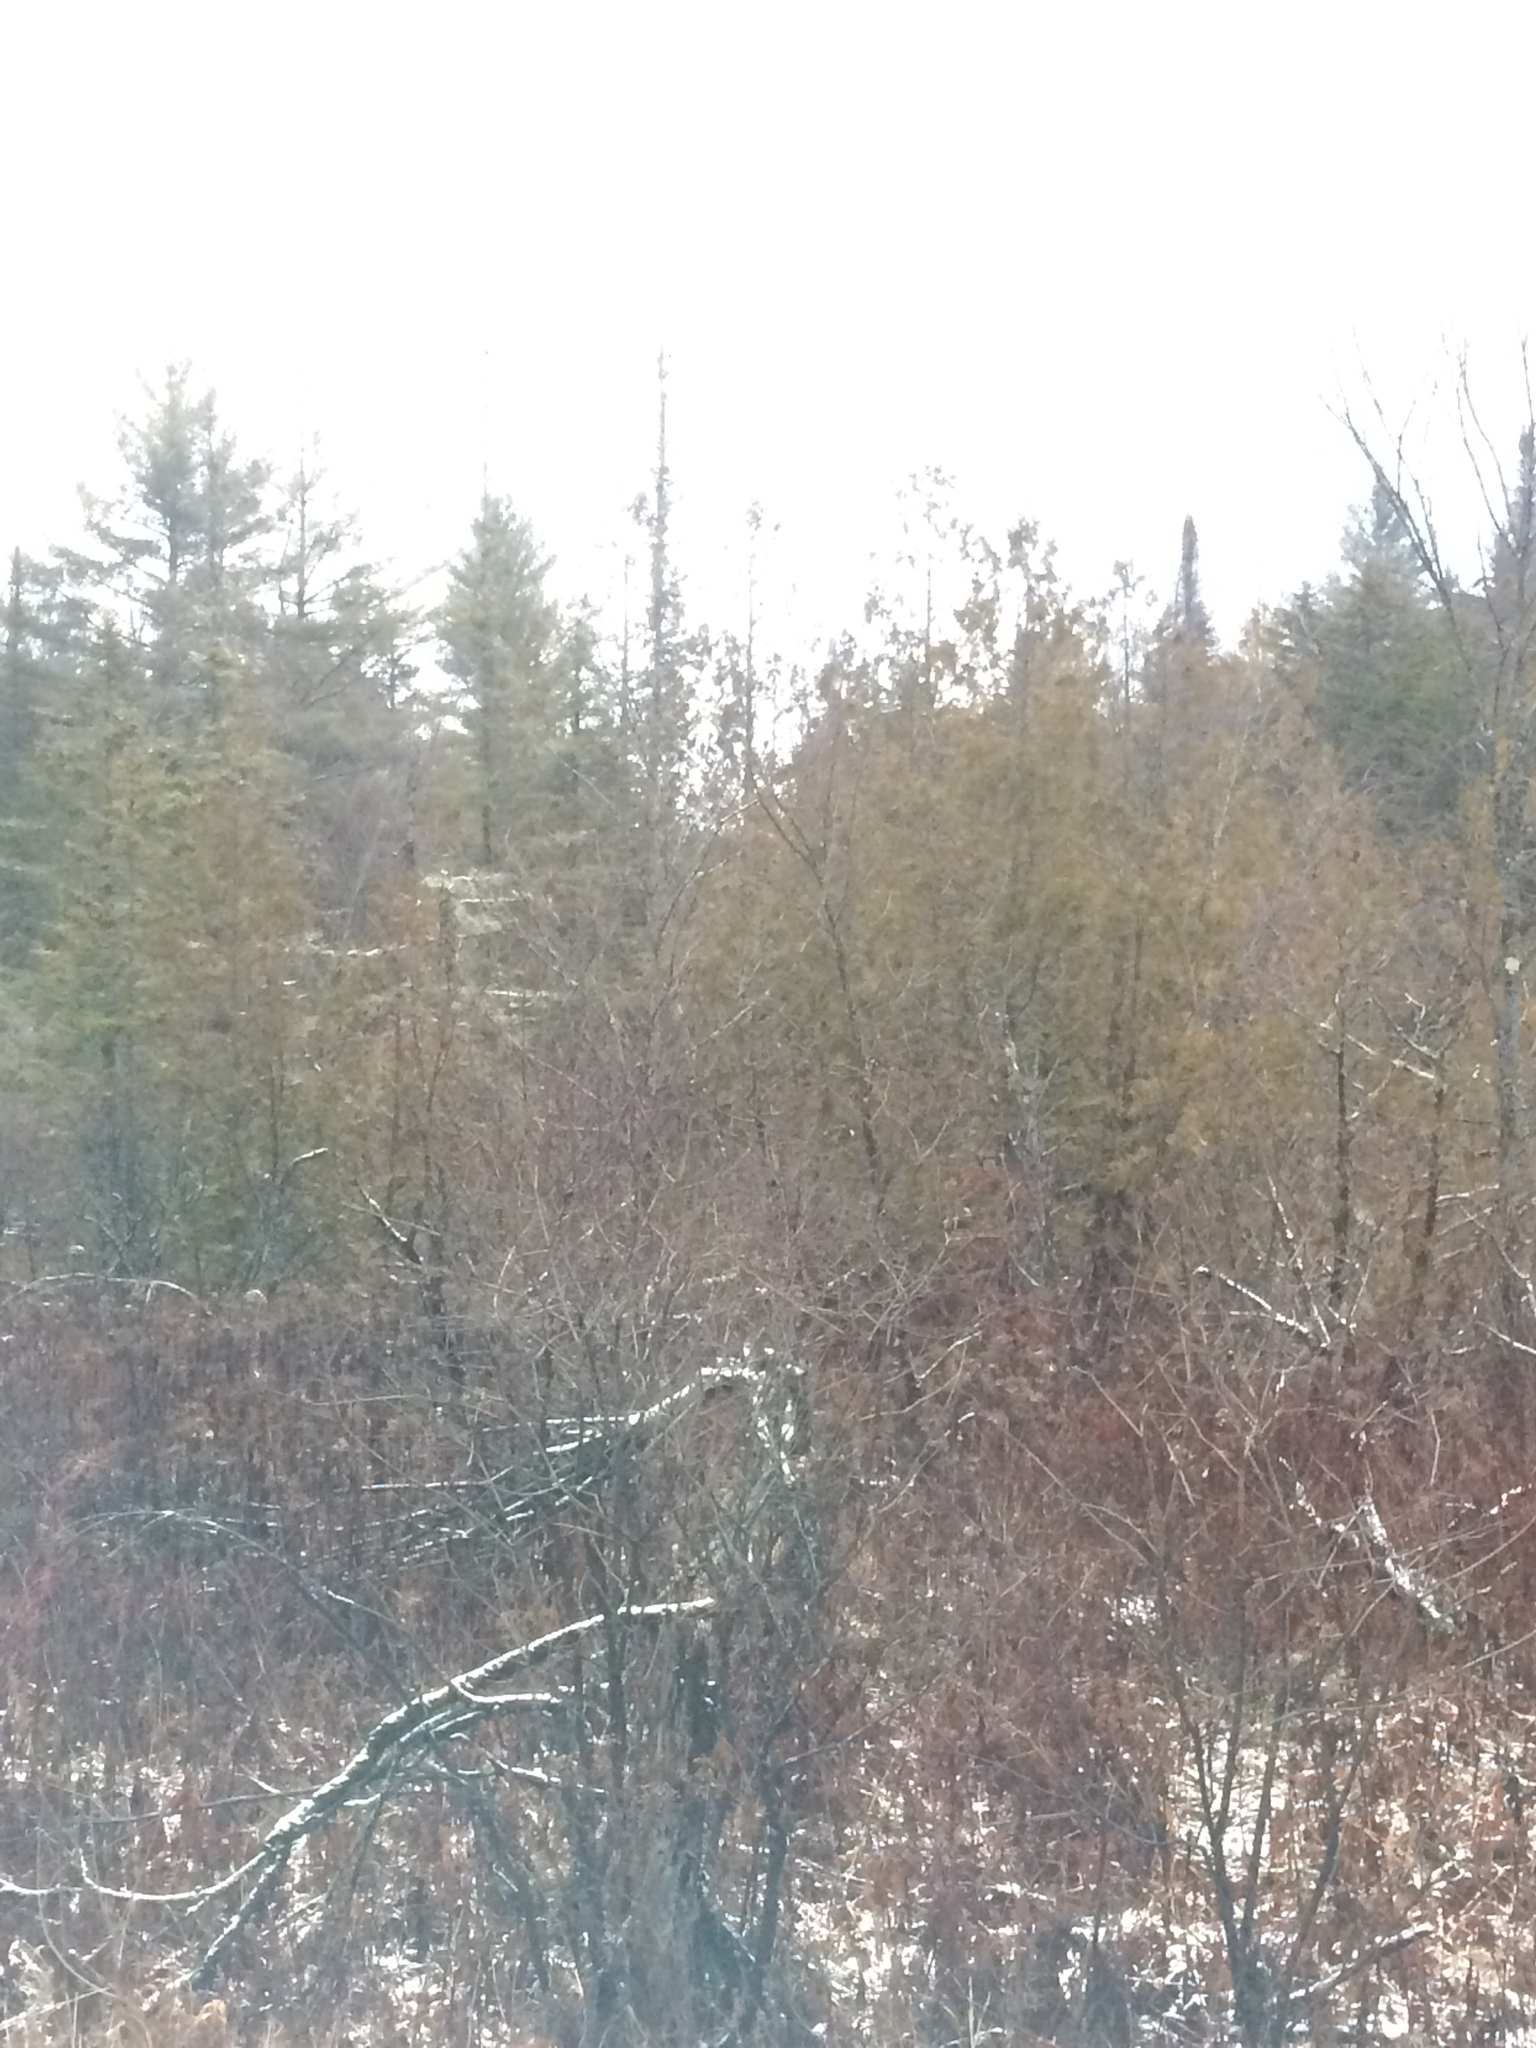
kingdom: Plantae
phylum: Tracheophyta
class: Pinopsida
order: Pinales
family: Cupressaceae
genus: Thuja
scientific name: Thuja occidentalis
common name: Northern white-cedar
